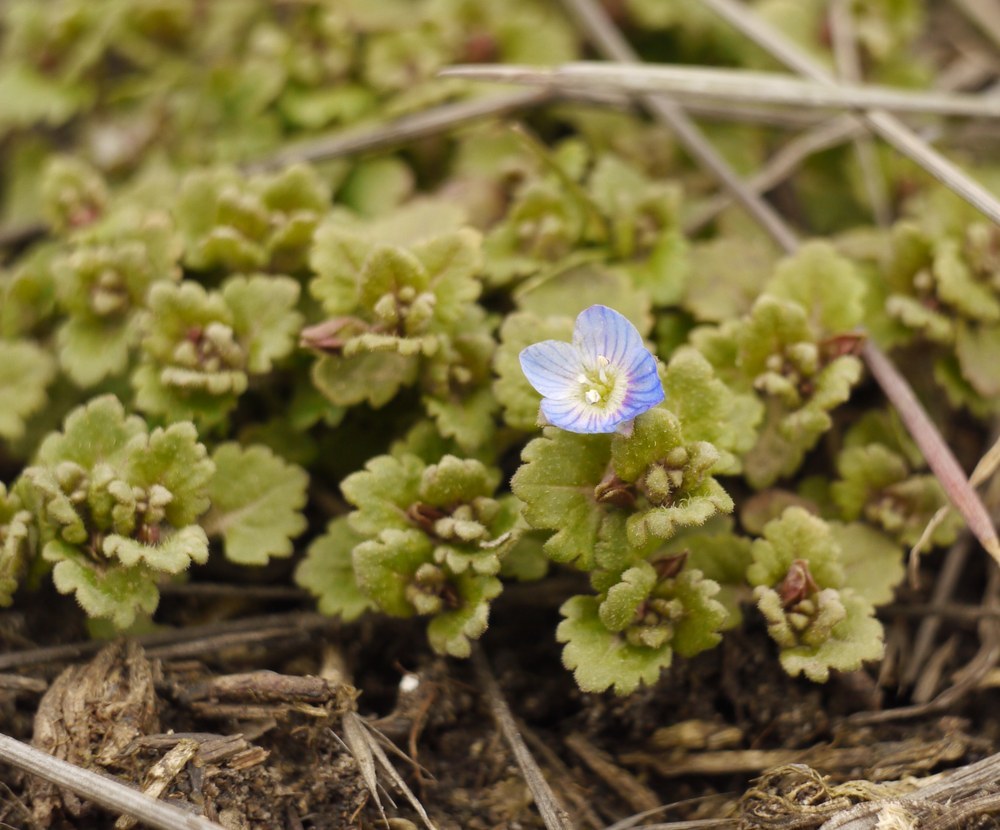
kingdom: Plantae
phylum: Tracheophyta
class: Magnoliopsida
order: Lamiales
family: Plantaginaceae
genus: Veronica
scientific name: Veronica persica
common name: Common field-speedwell
